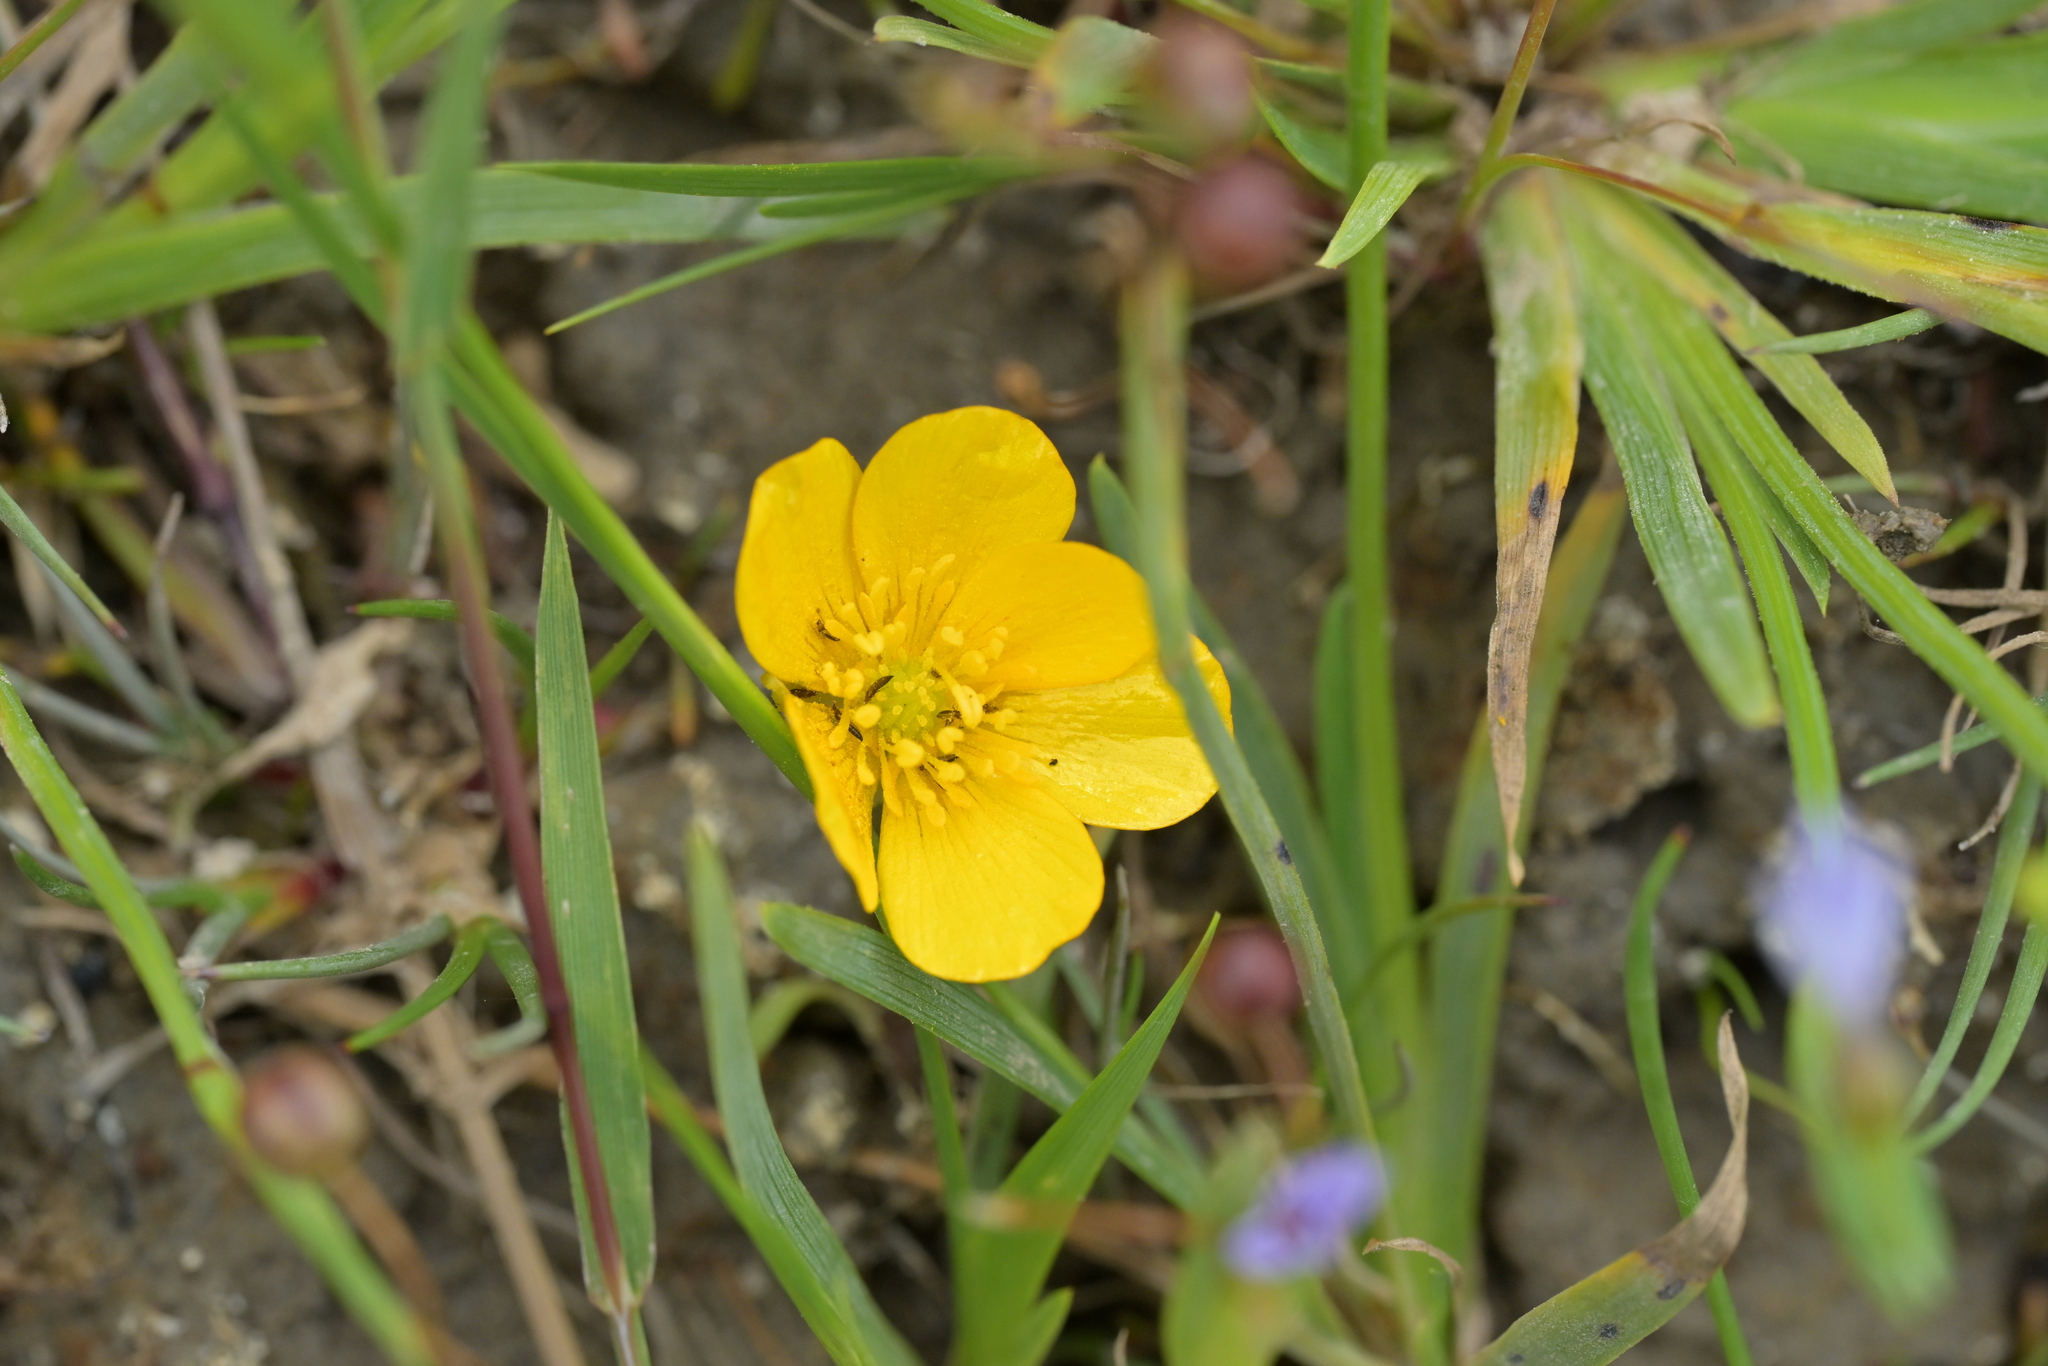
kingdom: Plantae
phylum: Tracheophyta
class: Magnoliopsida
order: Ranunculales
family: Ranunculaceae
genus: Ranunculus
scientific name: Ranunculus repens
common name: Creeping buttercup
